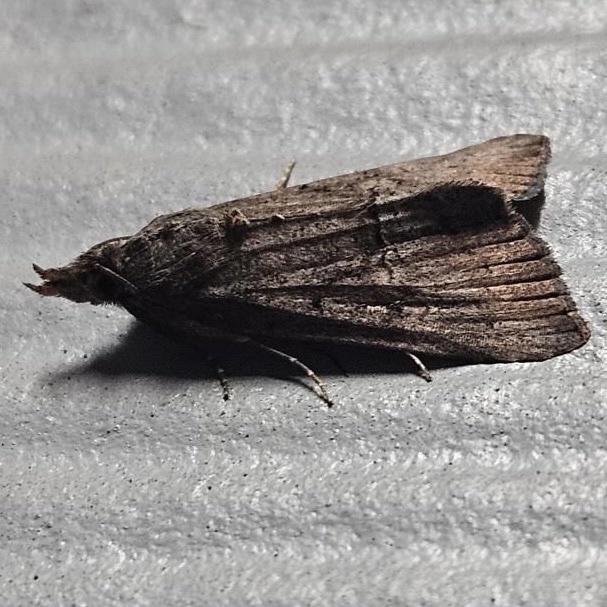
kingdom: Animalia
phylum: Arthropoda
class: Insecta
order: Lepidoptera
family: Erebidae
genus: Hypena
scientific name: Hypena scabra
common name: Green cloverworm
